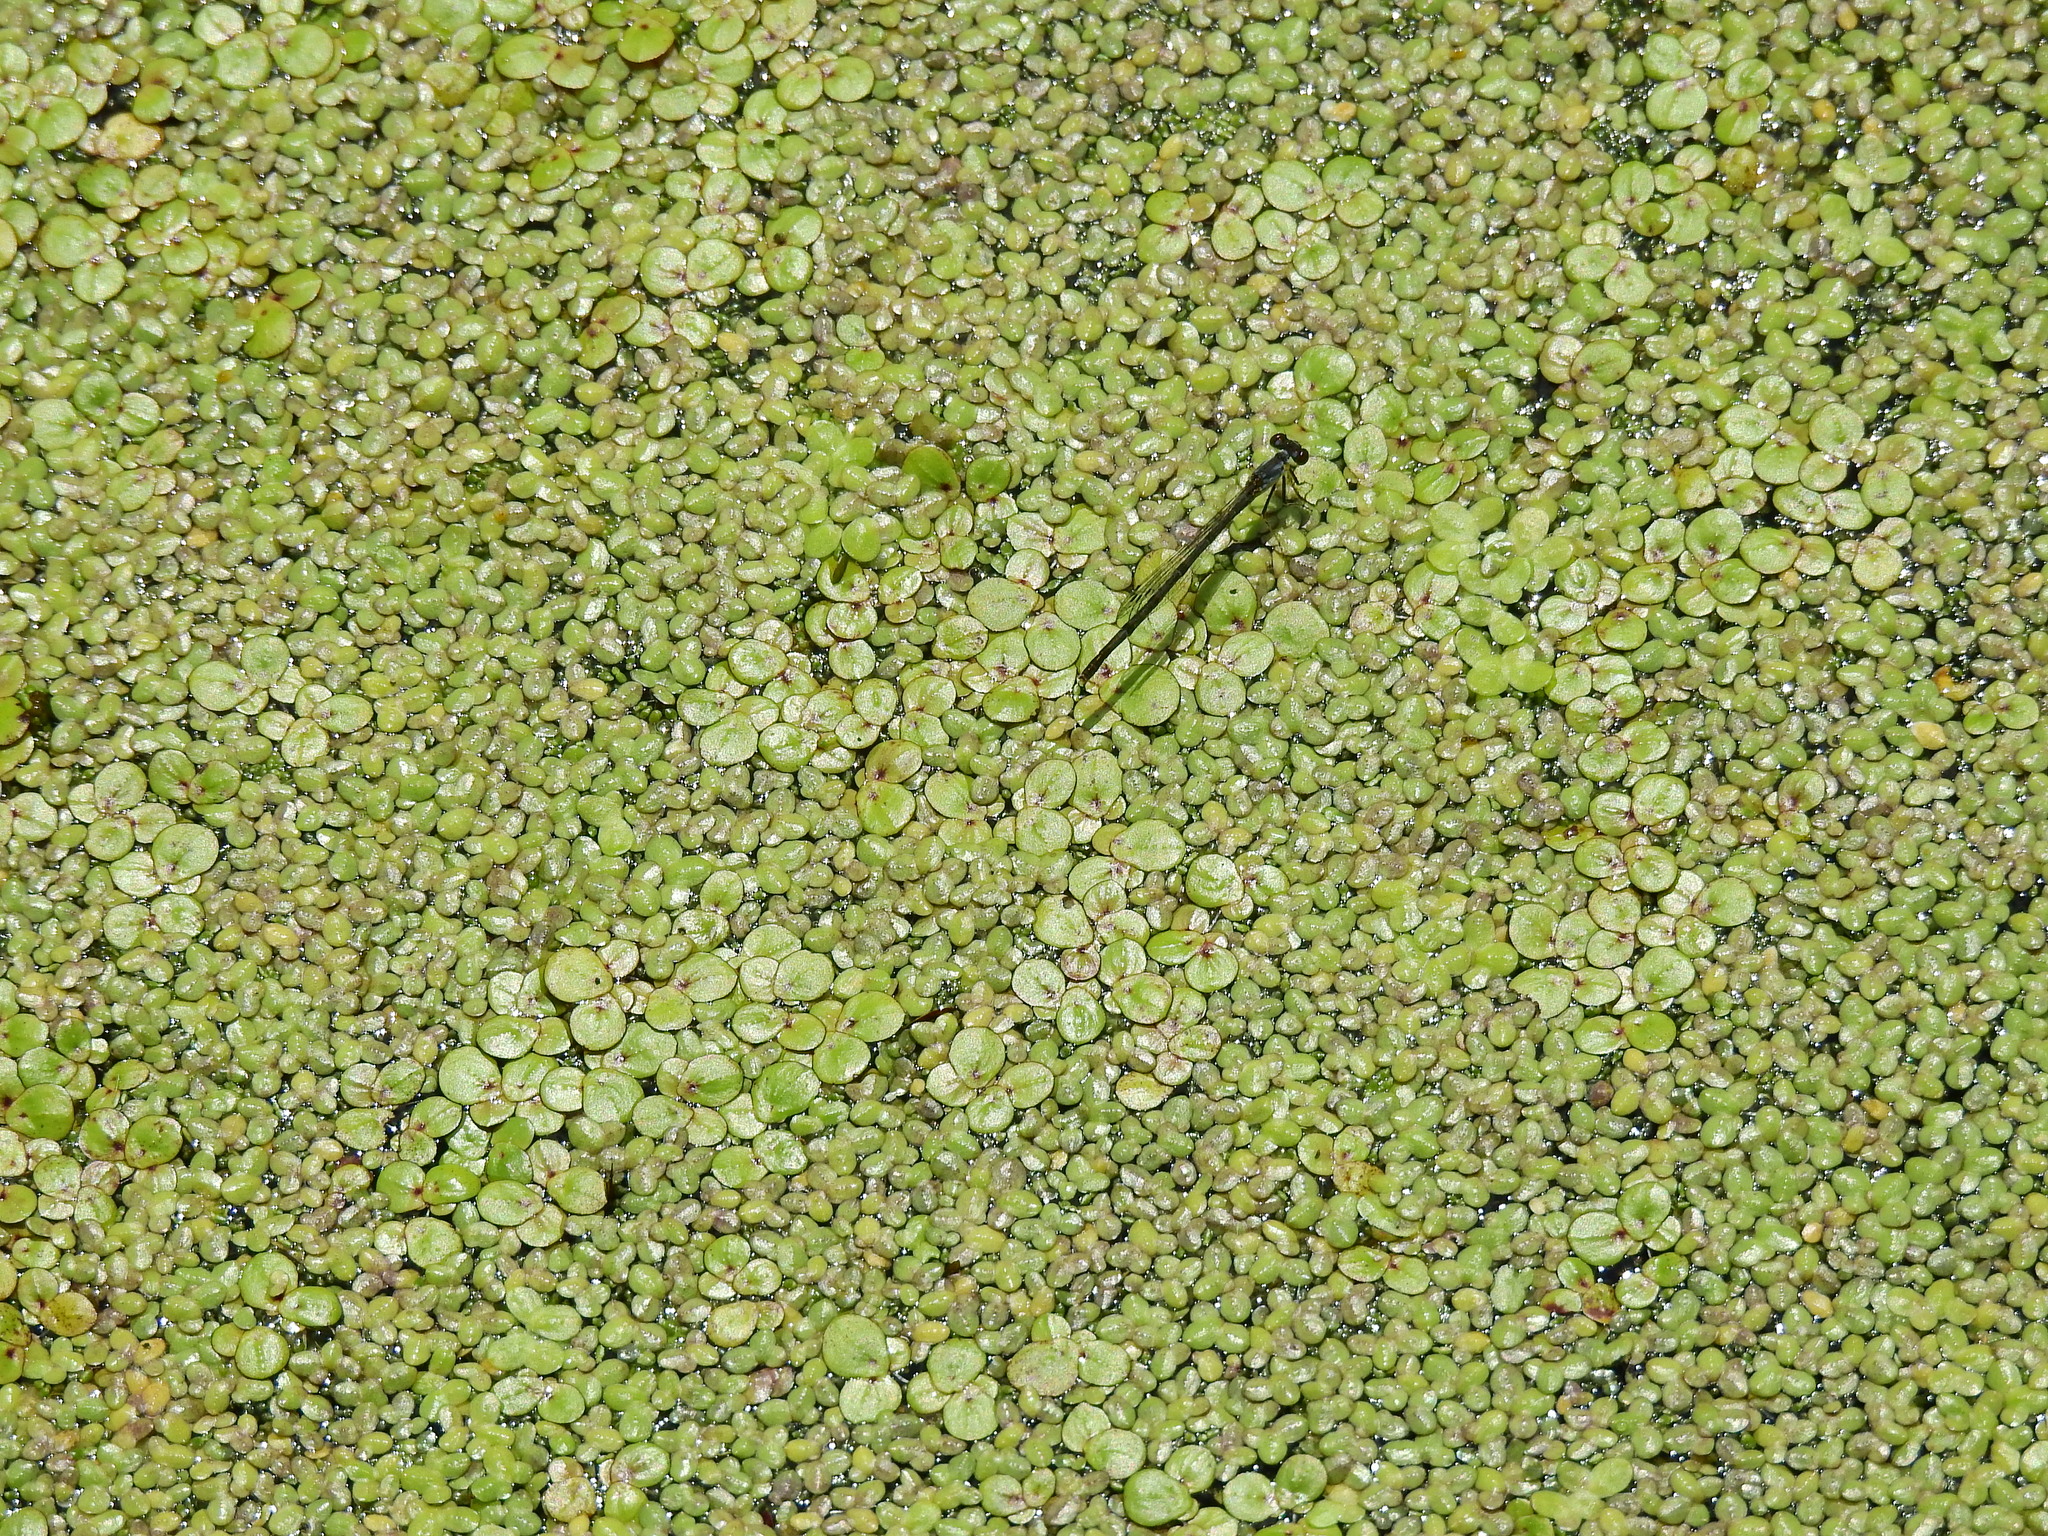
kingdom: Animalia
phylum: Arthropoda
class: Insecta
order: Odonata
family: Coenagrionidae
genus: Ischnura
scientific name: Ischnura posita
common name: Fragile forktail
